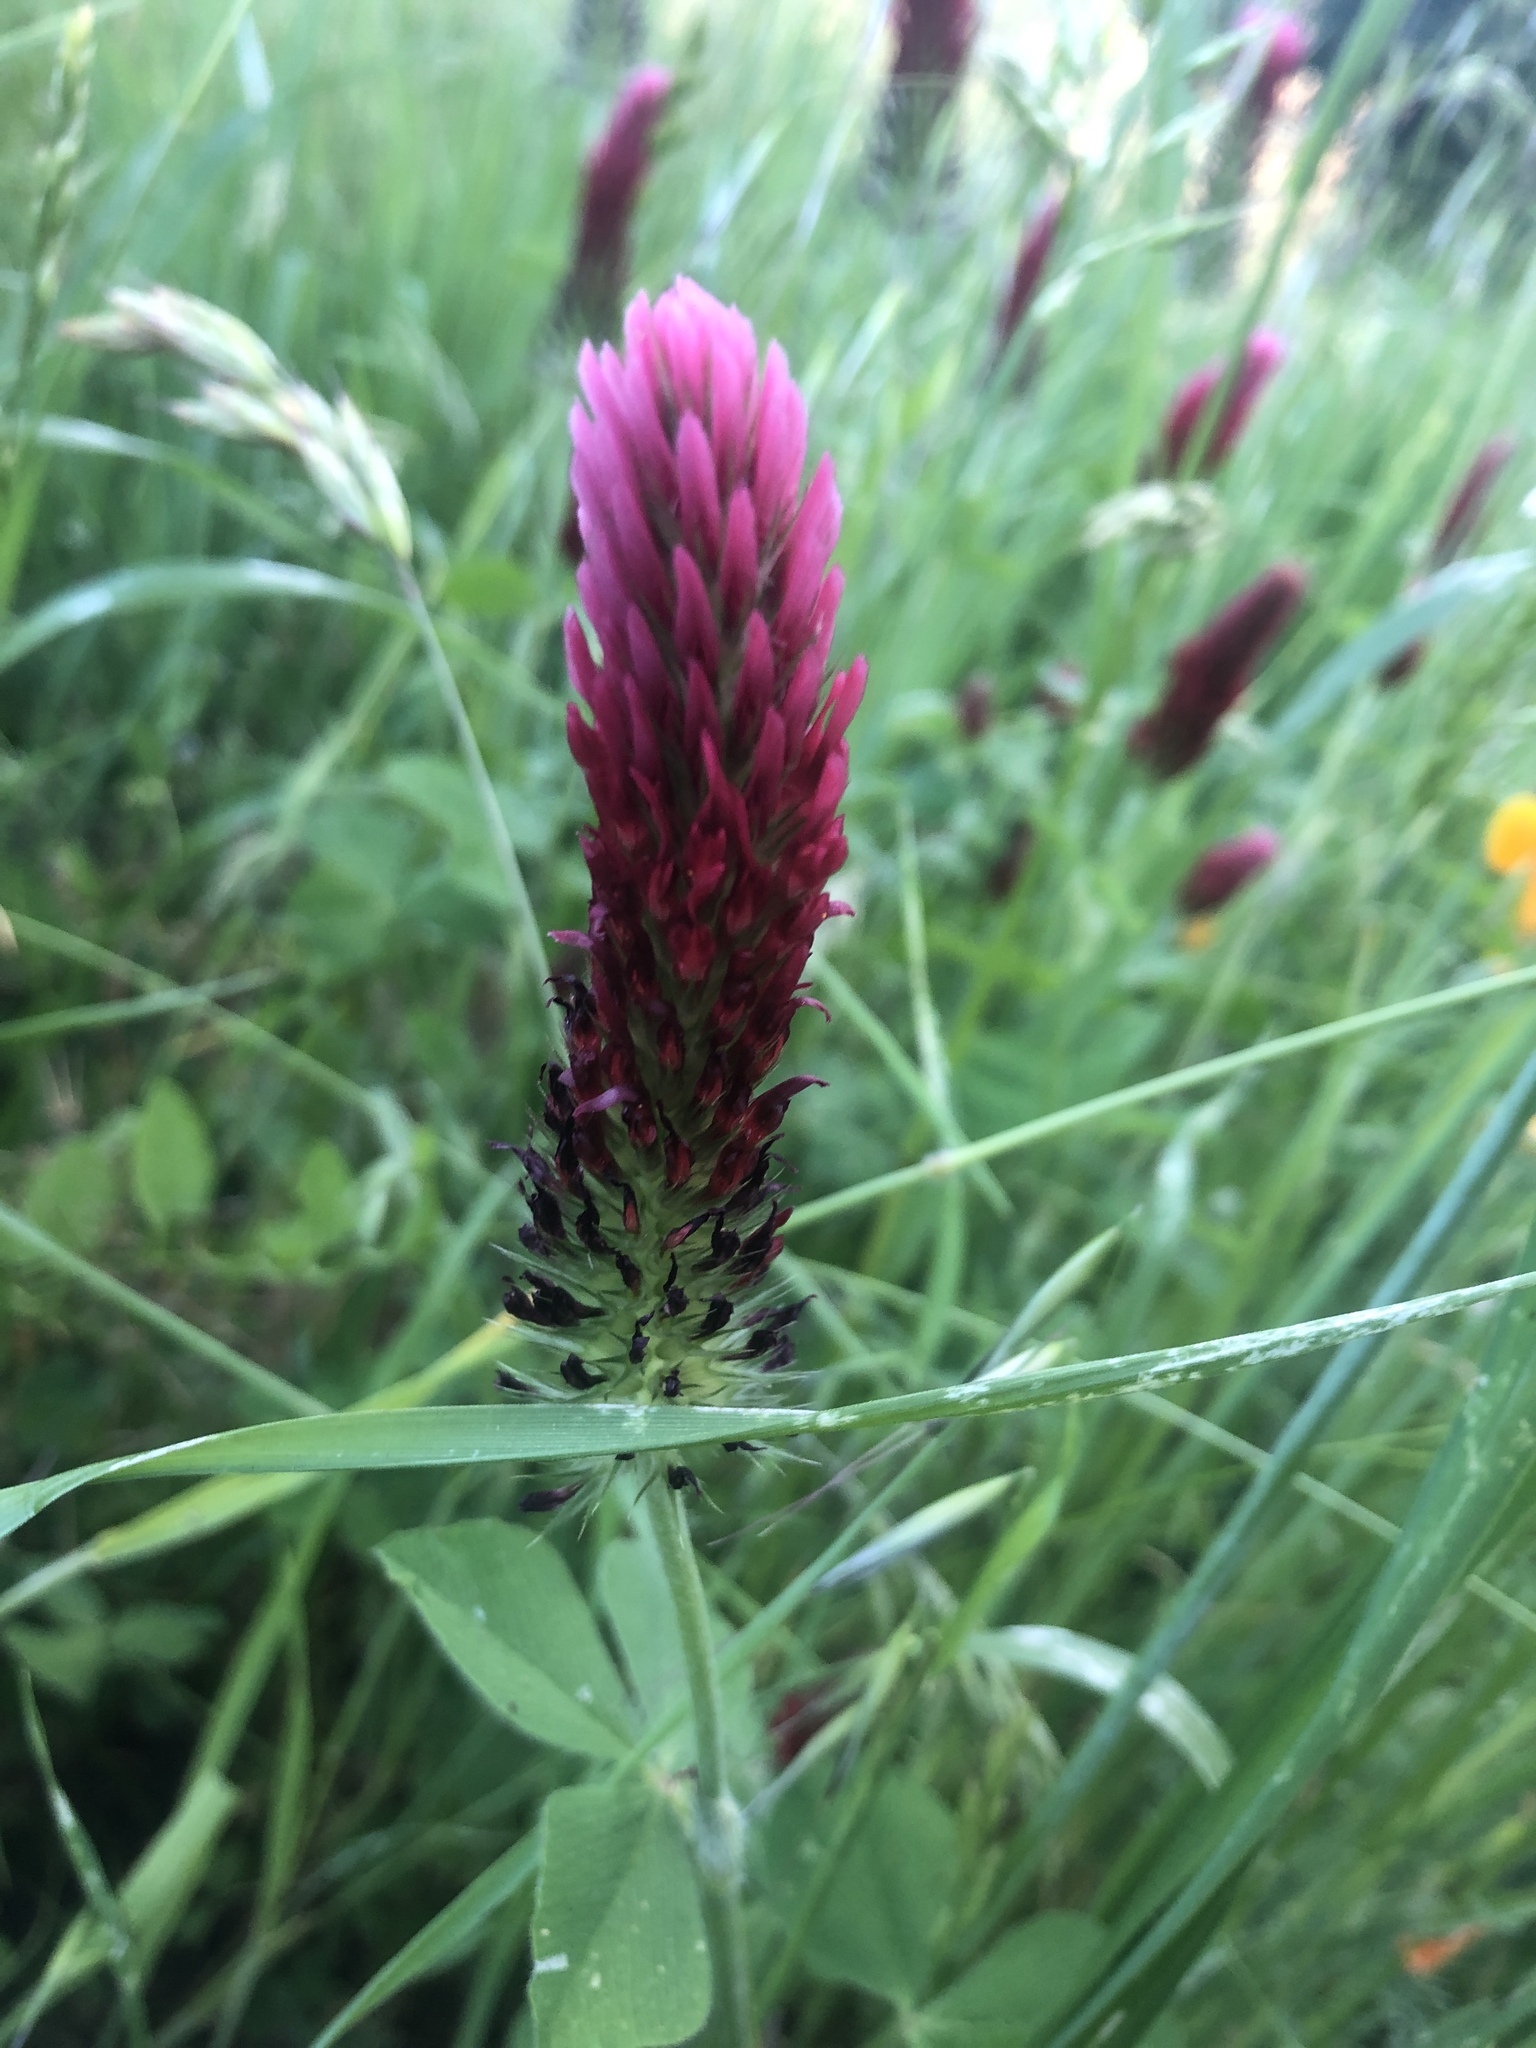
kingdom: Plantae
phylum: Tracheophyta
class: Magnoliopsida
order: Fabales
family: Fabaceae
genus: Trifolium
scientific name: Trifolium incarnatum
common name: Crimson clover
